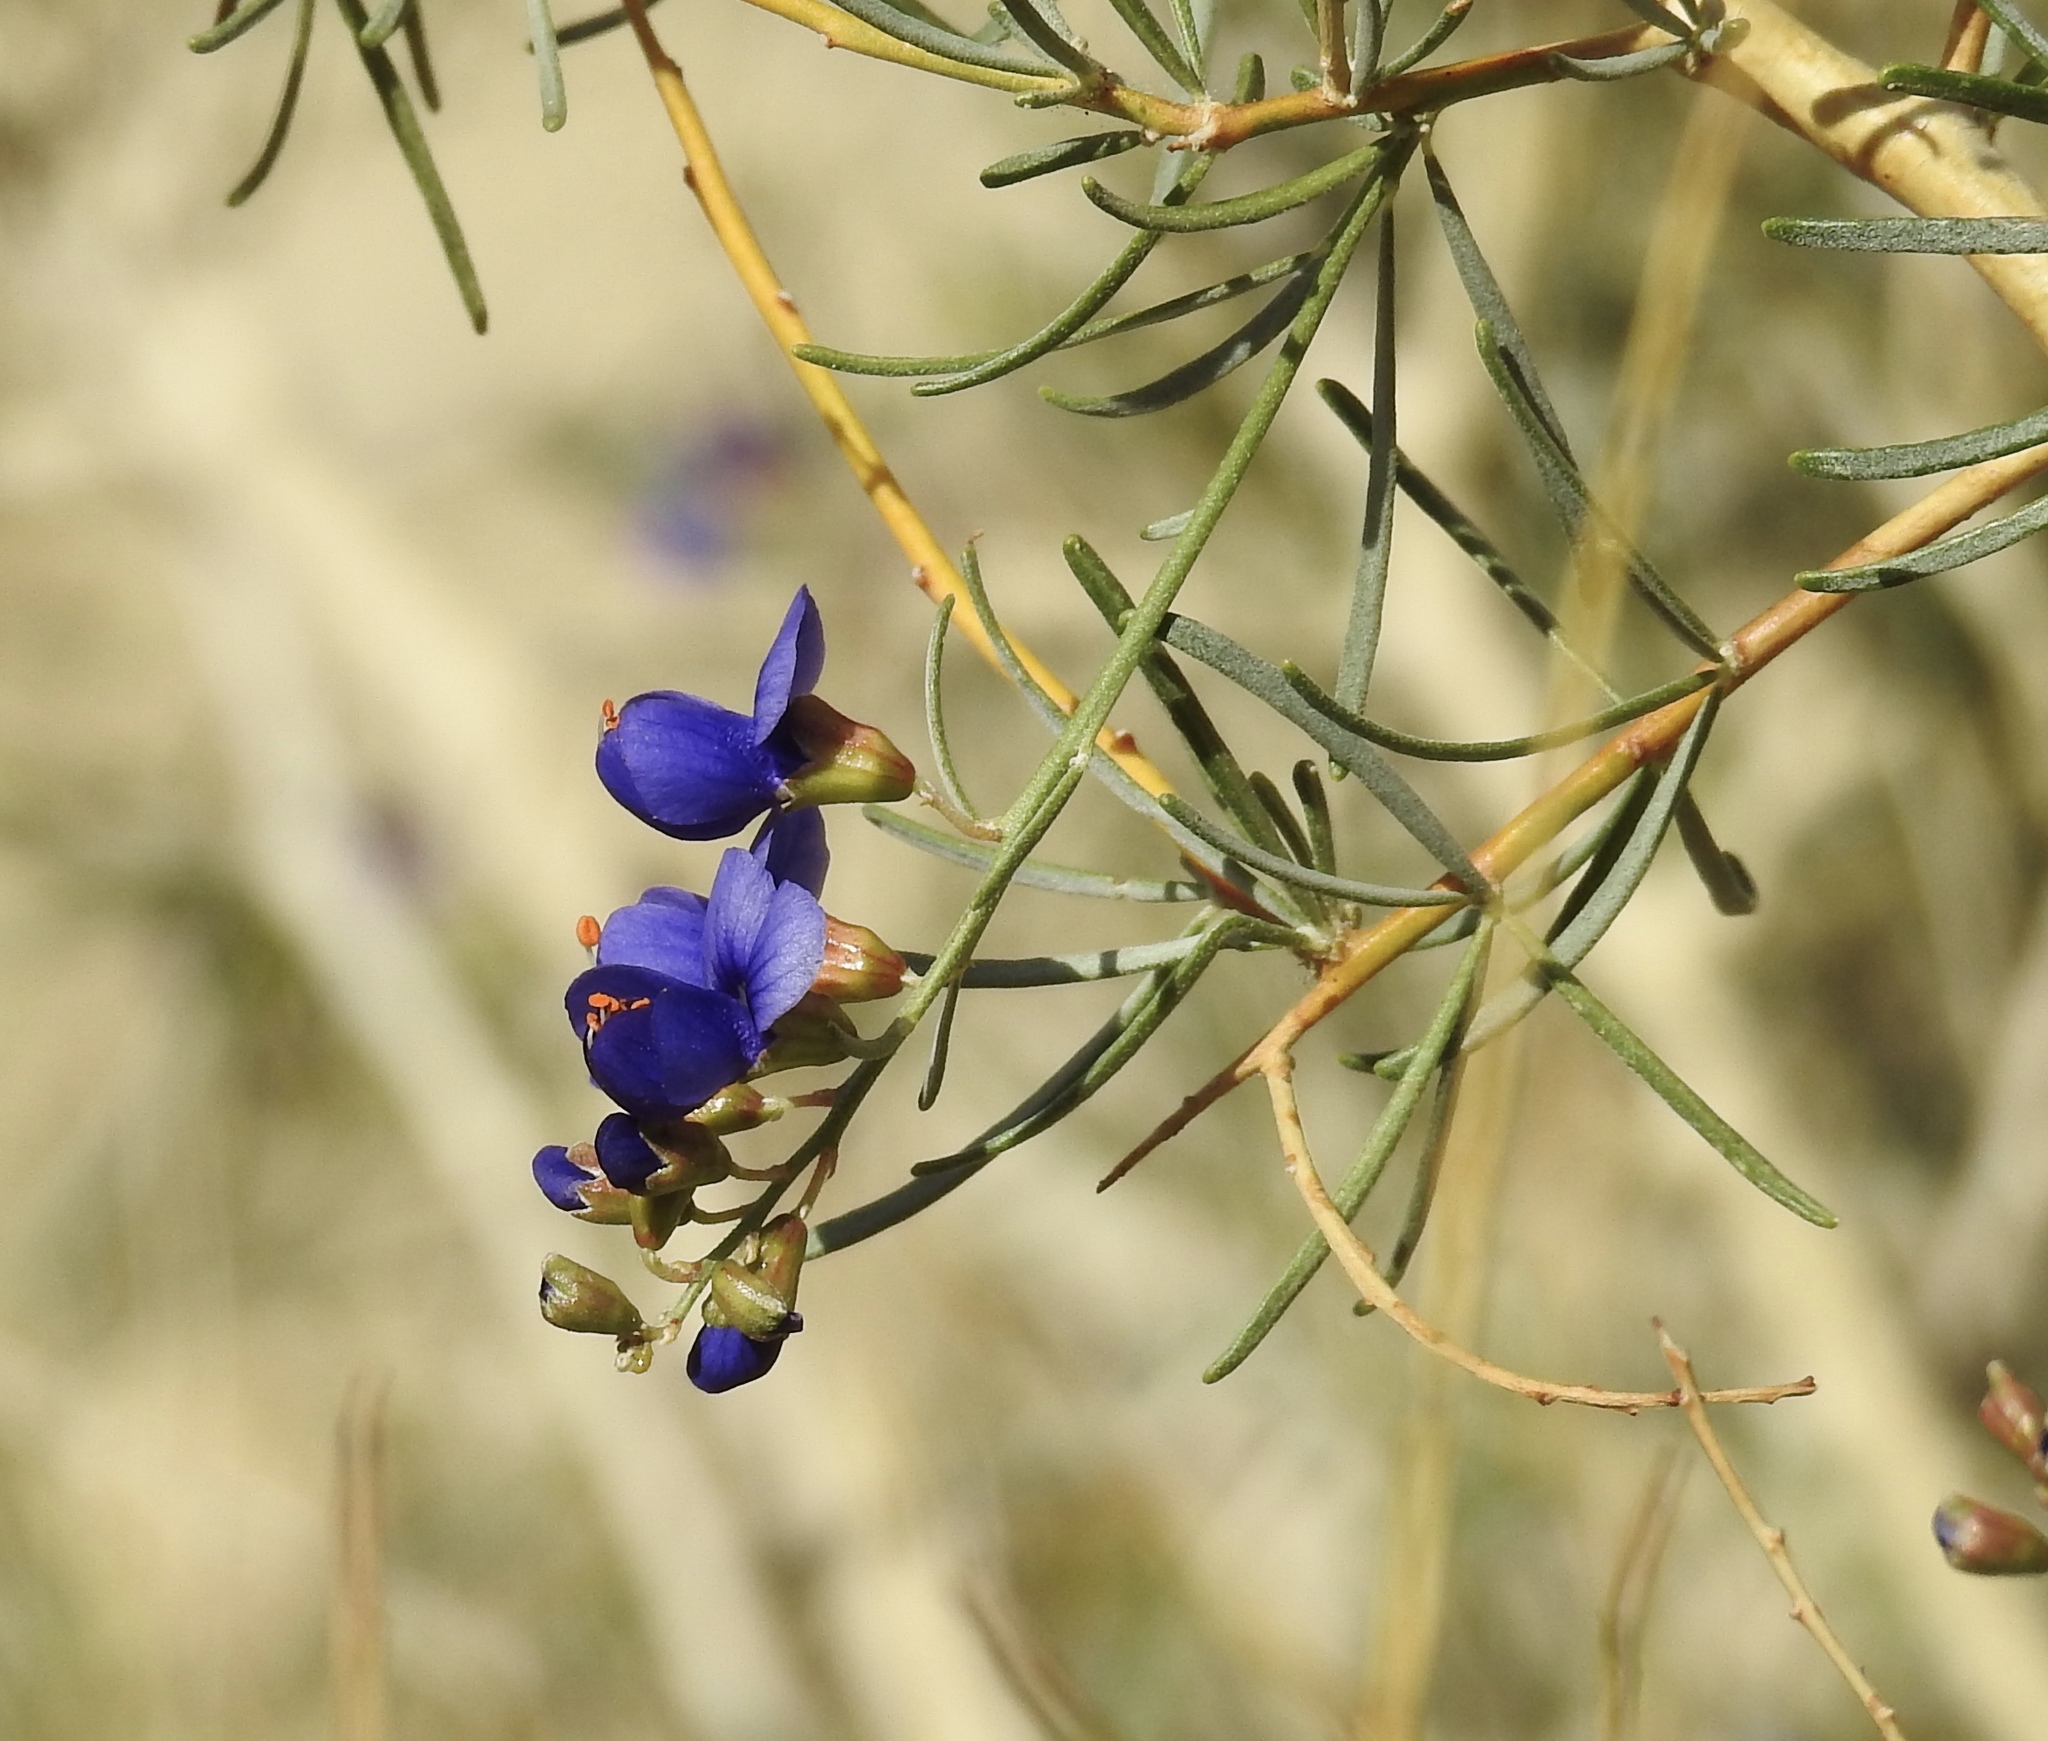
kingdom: Plantae
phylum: Tracheophyta
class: Magnoliopsida
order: Fabales
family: Fabaceae
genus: Psorothamnus
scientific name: Psorothamnus schottii
